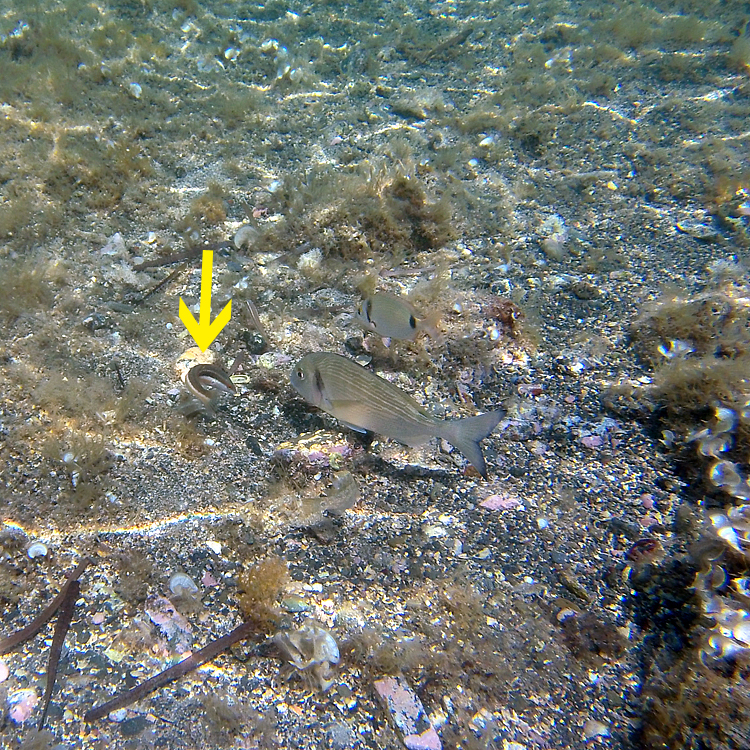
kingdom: Animalia
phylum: Chordata
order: Perciformes
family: Labridae
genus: Coris
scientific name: Coris julis
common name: Rainbow wrasse
